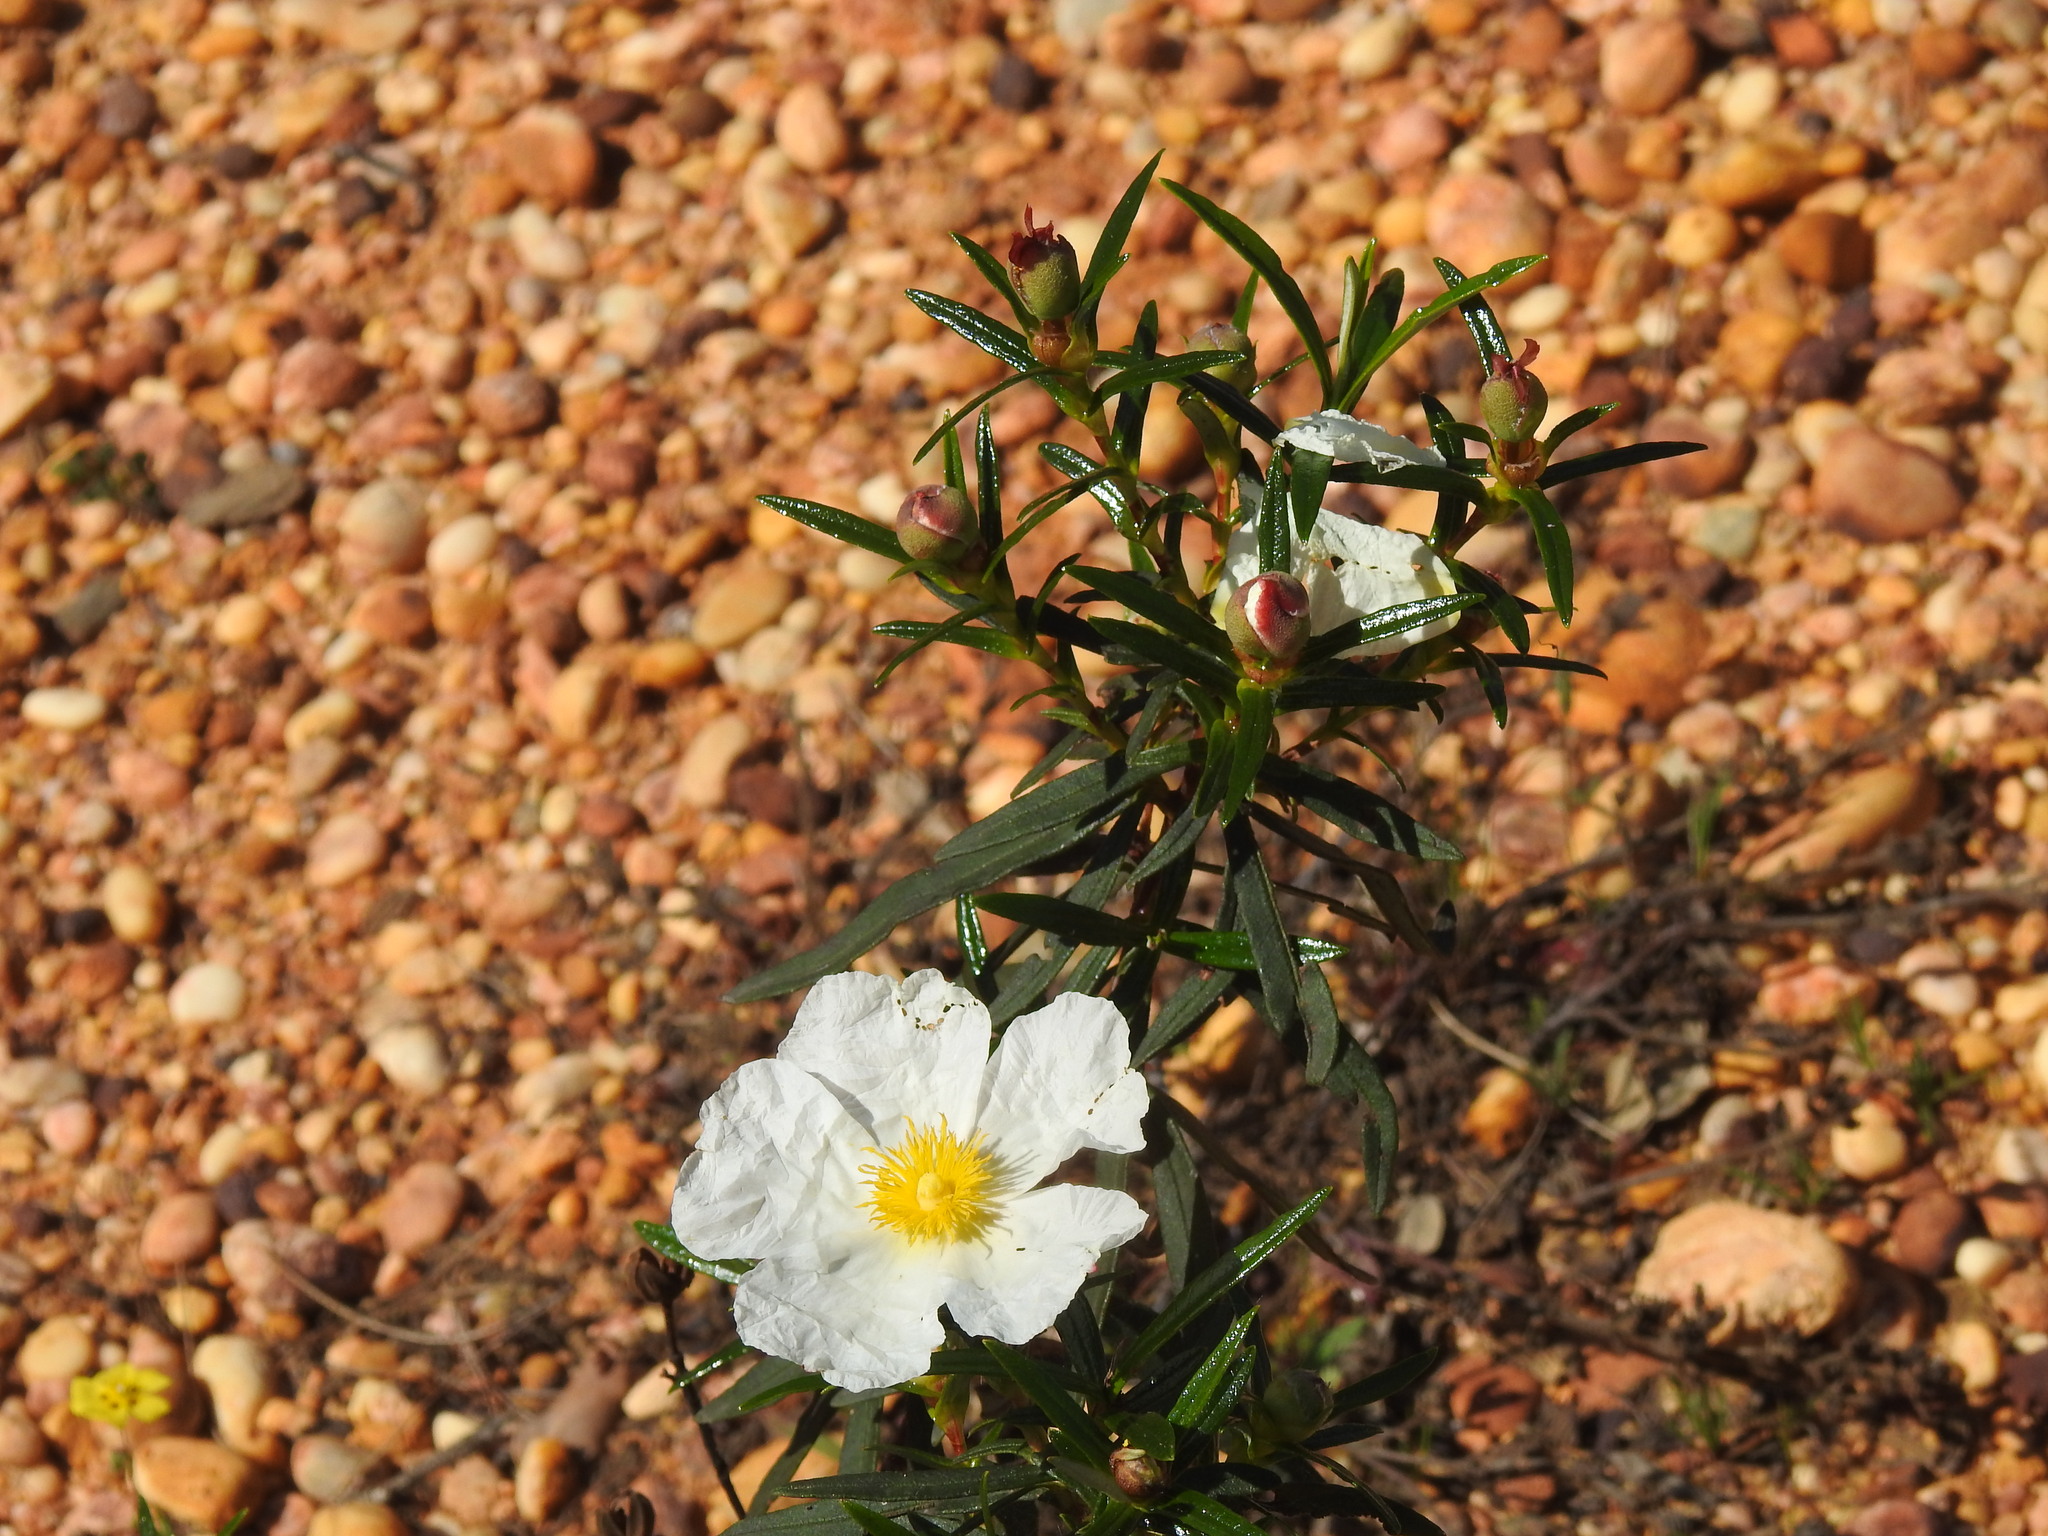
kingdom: Plantae
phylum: Tracheophyta
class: Magnoliopsida
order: Malvales
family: Cistaceae
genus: Cistus
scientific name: Cistus ladanifer
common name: Common gum cistus
